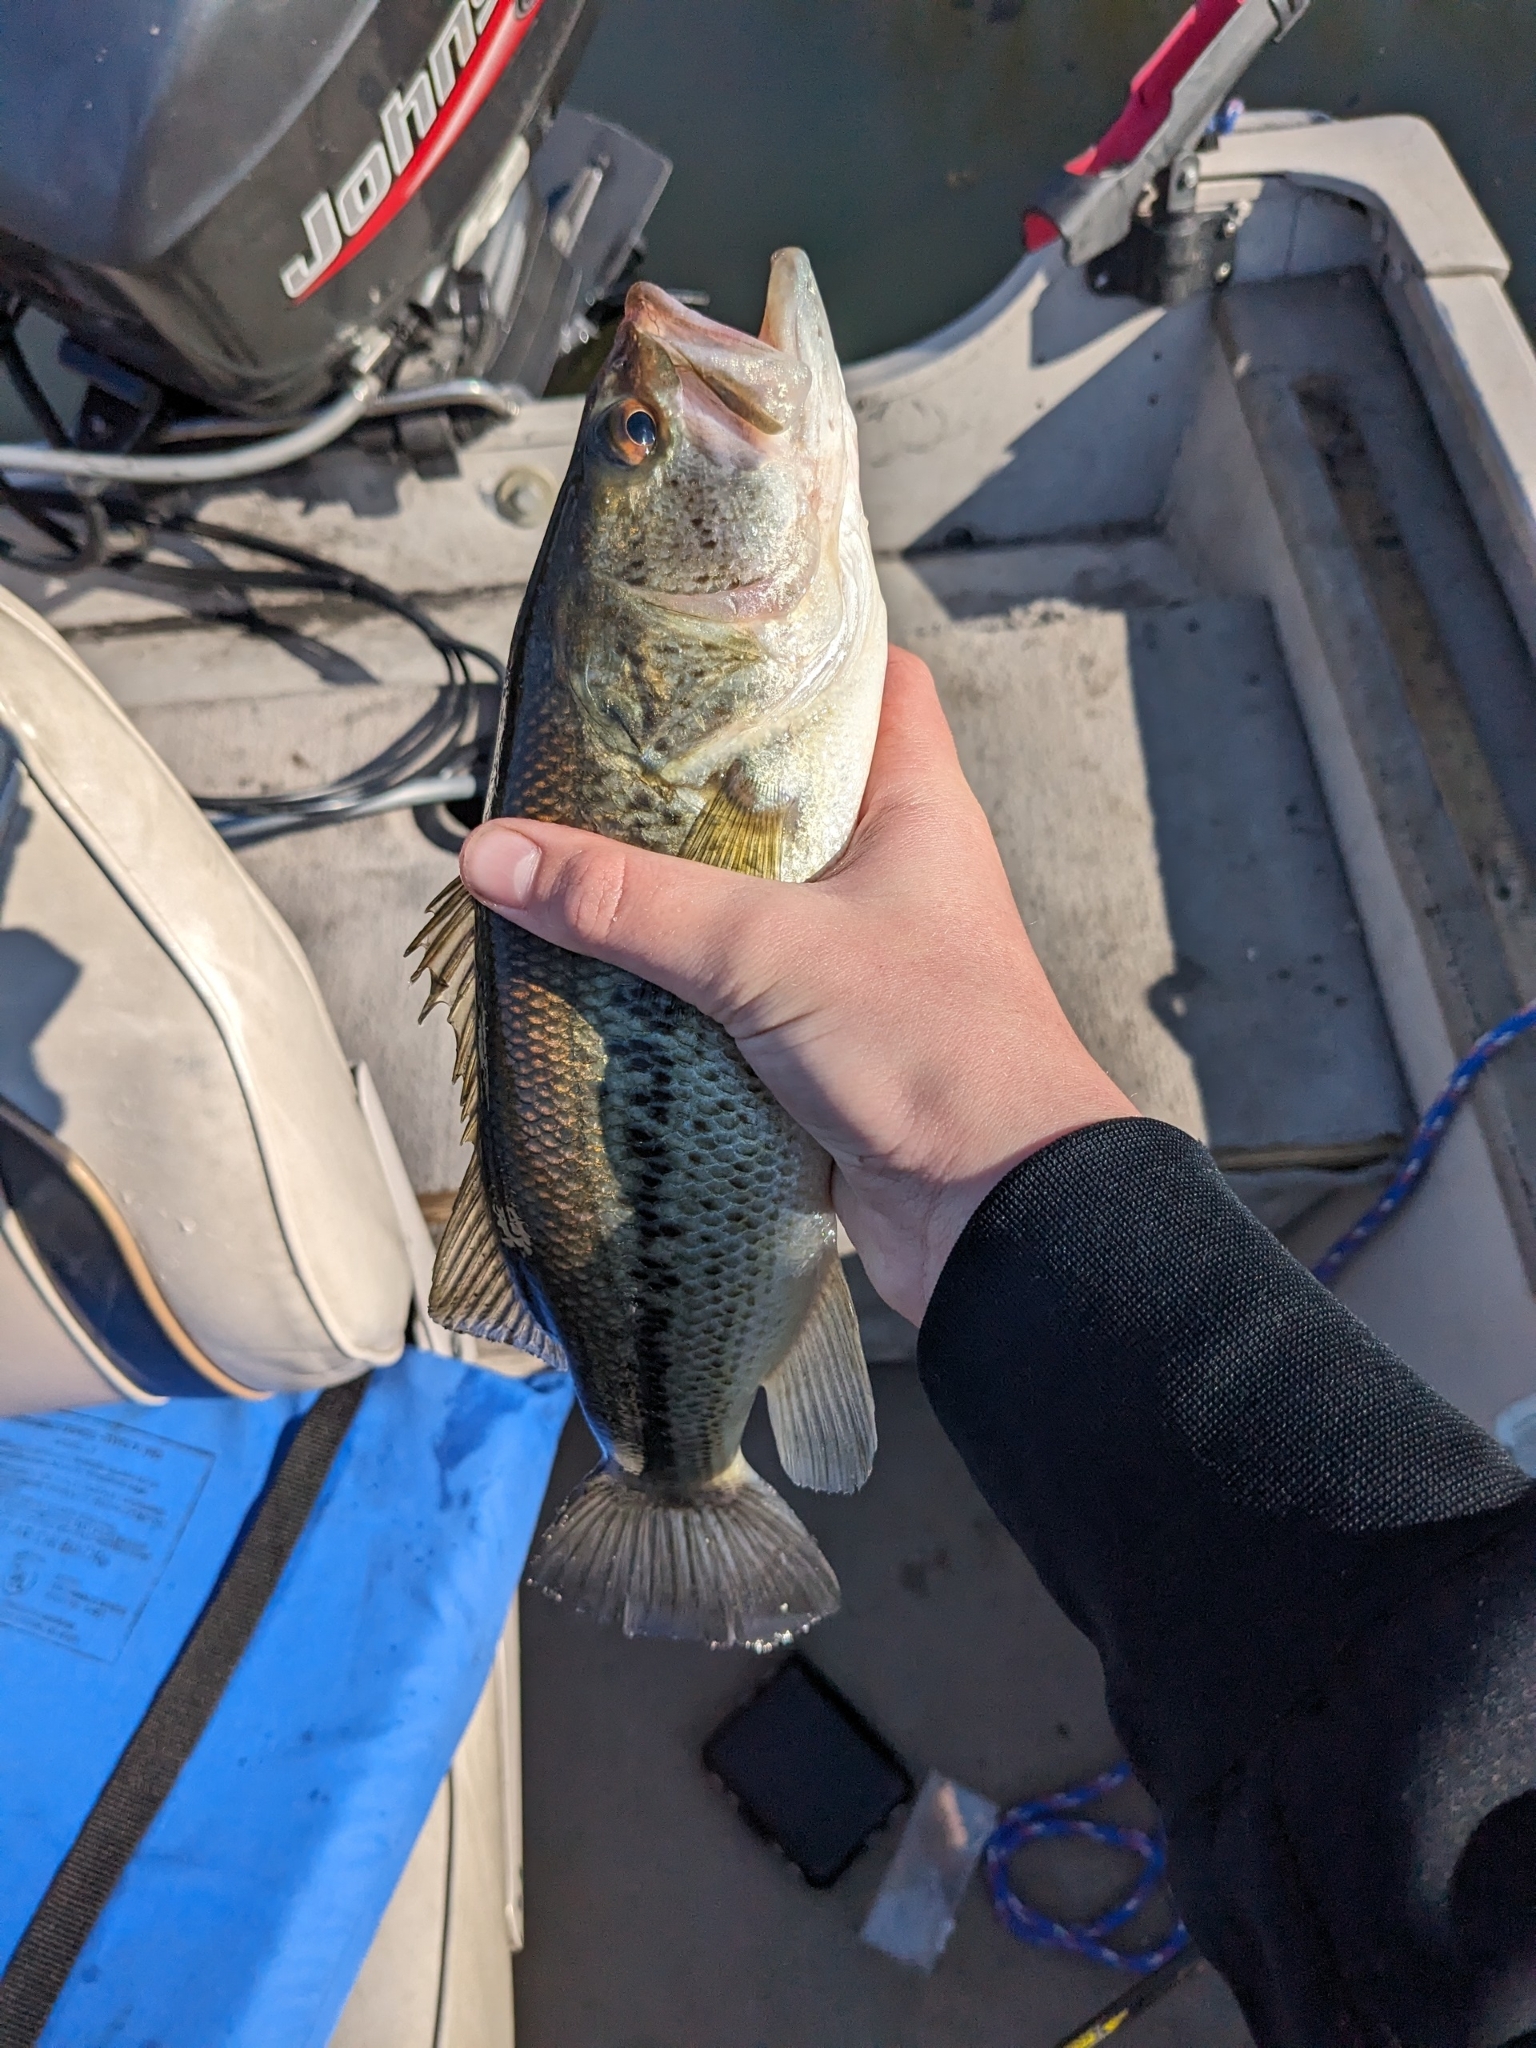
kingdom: Animalia
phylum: Chordata
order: Perciformes
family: Centrarchidae
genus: Micropterus
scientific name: Micropterus
